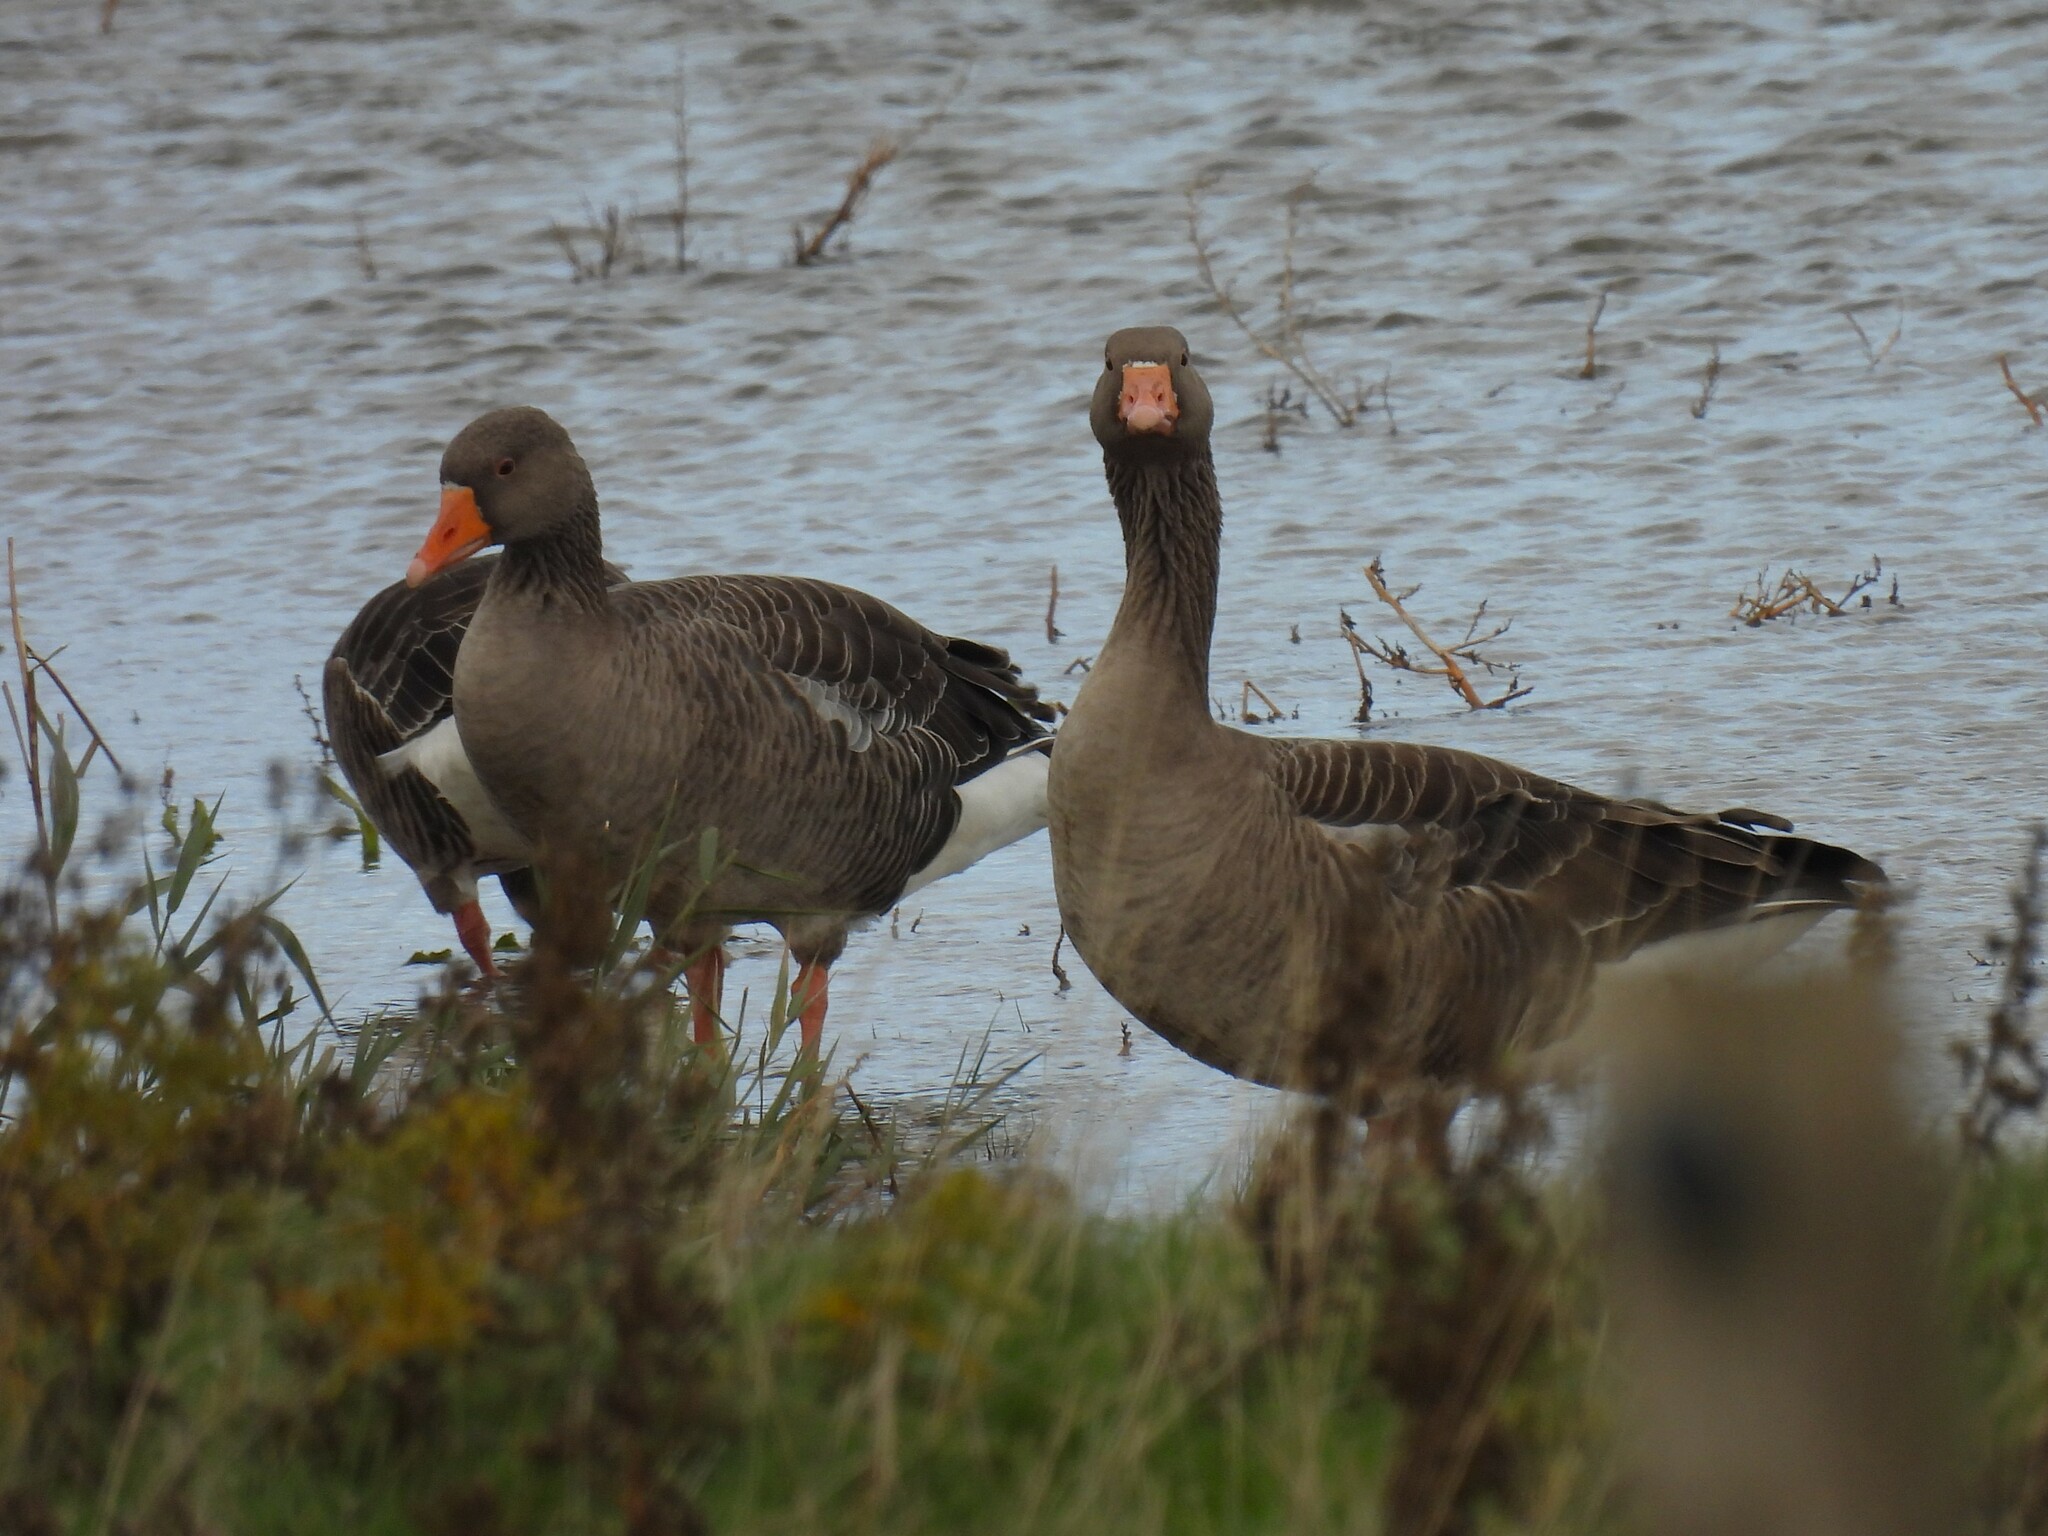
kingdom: Animalia
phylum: Chordata
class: Aves
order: Anseriformes
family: Anatidae
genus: Anser
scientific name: Anser anser
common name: Greylag goose
